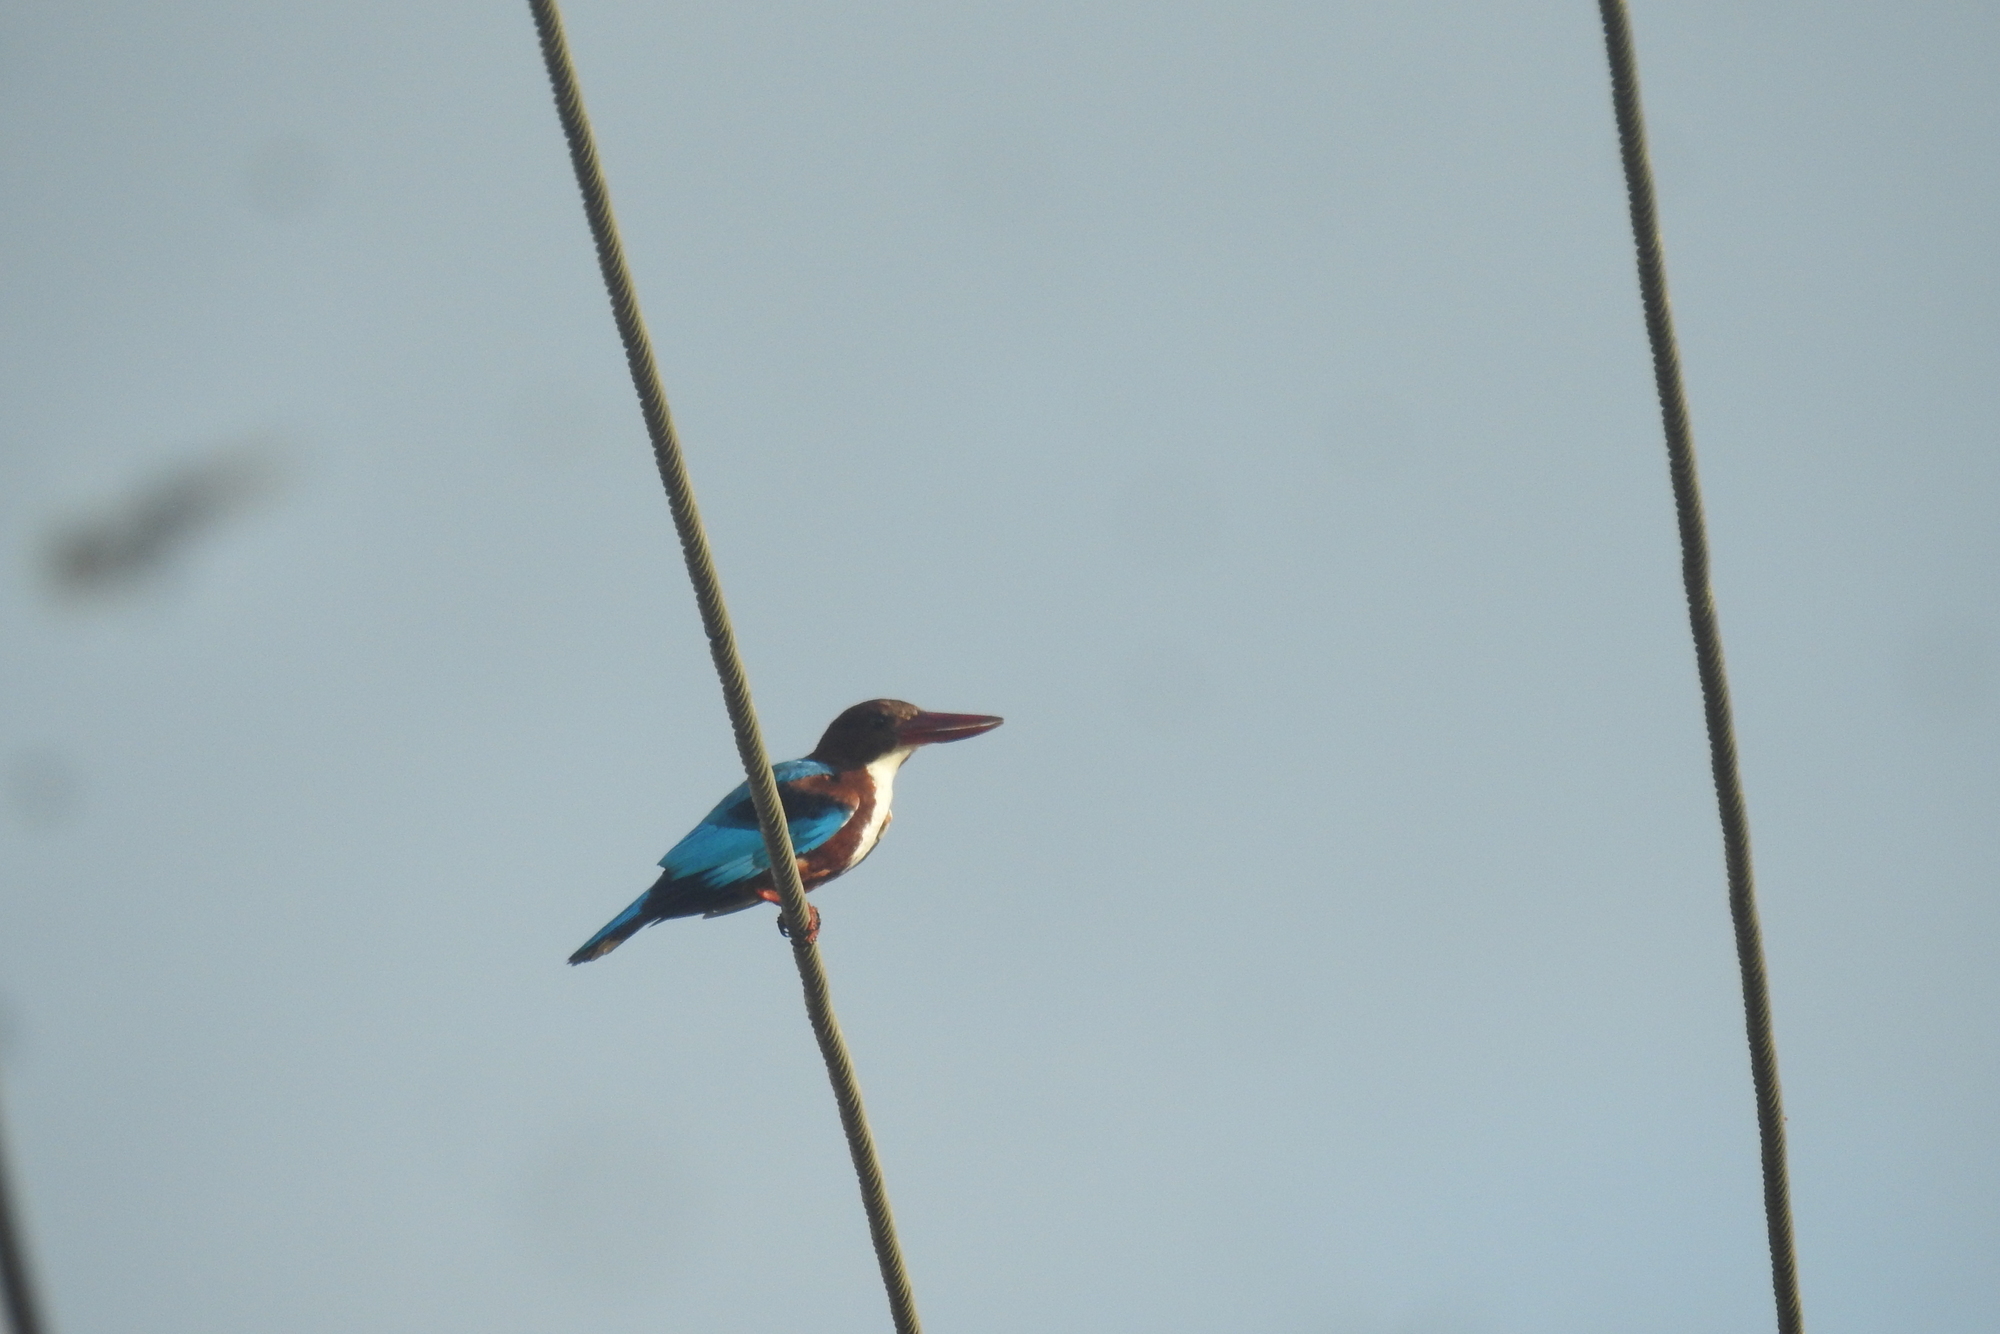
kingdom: Animalia
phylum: Chordata
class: Aves
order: Coraciiformes
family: Alcedinidae
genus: Halcyon
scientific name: Halcyon smyrnensis
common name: White-throated kingfisher
